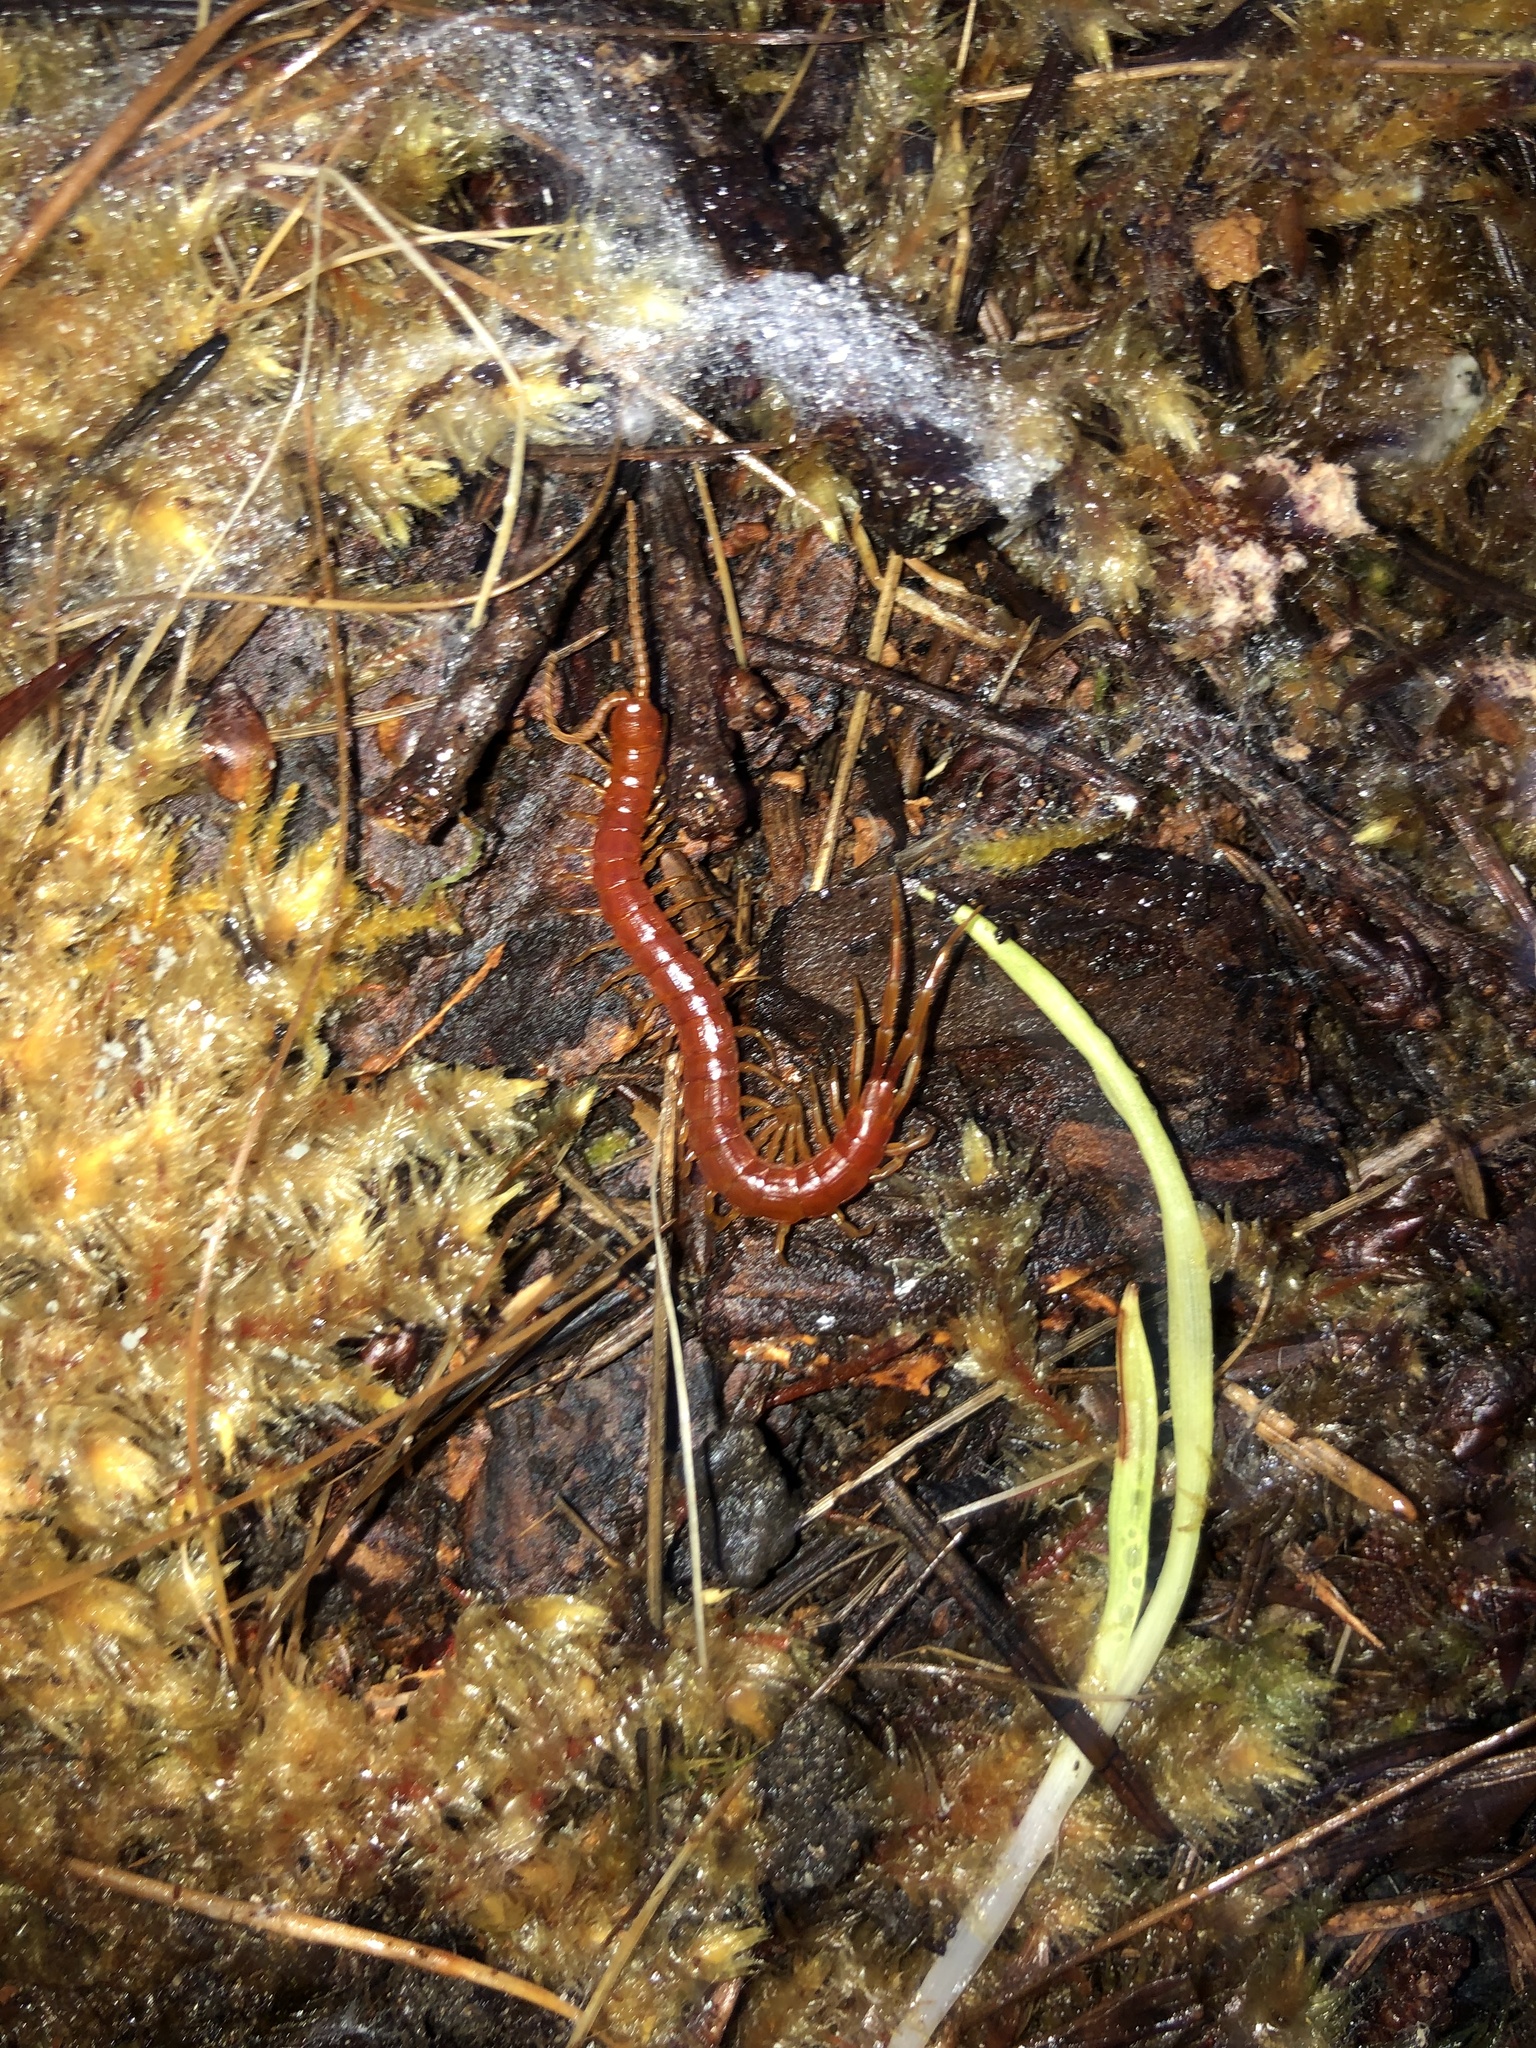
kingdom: Animalia
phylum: Arthropoda
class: Chilopoda
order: Scolopendromorpha
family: Scolopocryptopidae
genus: Scolopocryptops
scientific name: Scolopocryptops spinicaudus
